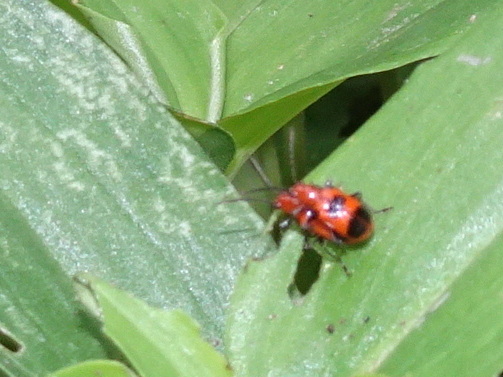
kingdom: Animalia
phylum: Arthropoda
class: Insecta
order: Coleoptera
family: Chrysomelidae
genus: Neolema
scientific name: Neolema sexpunctata
